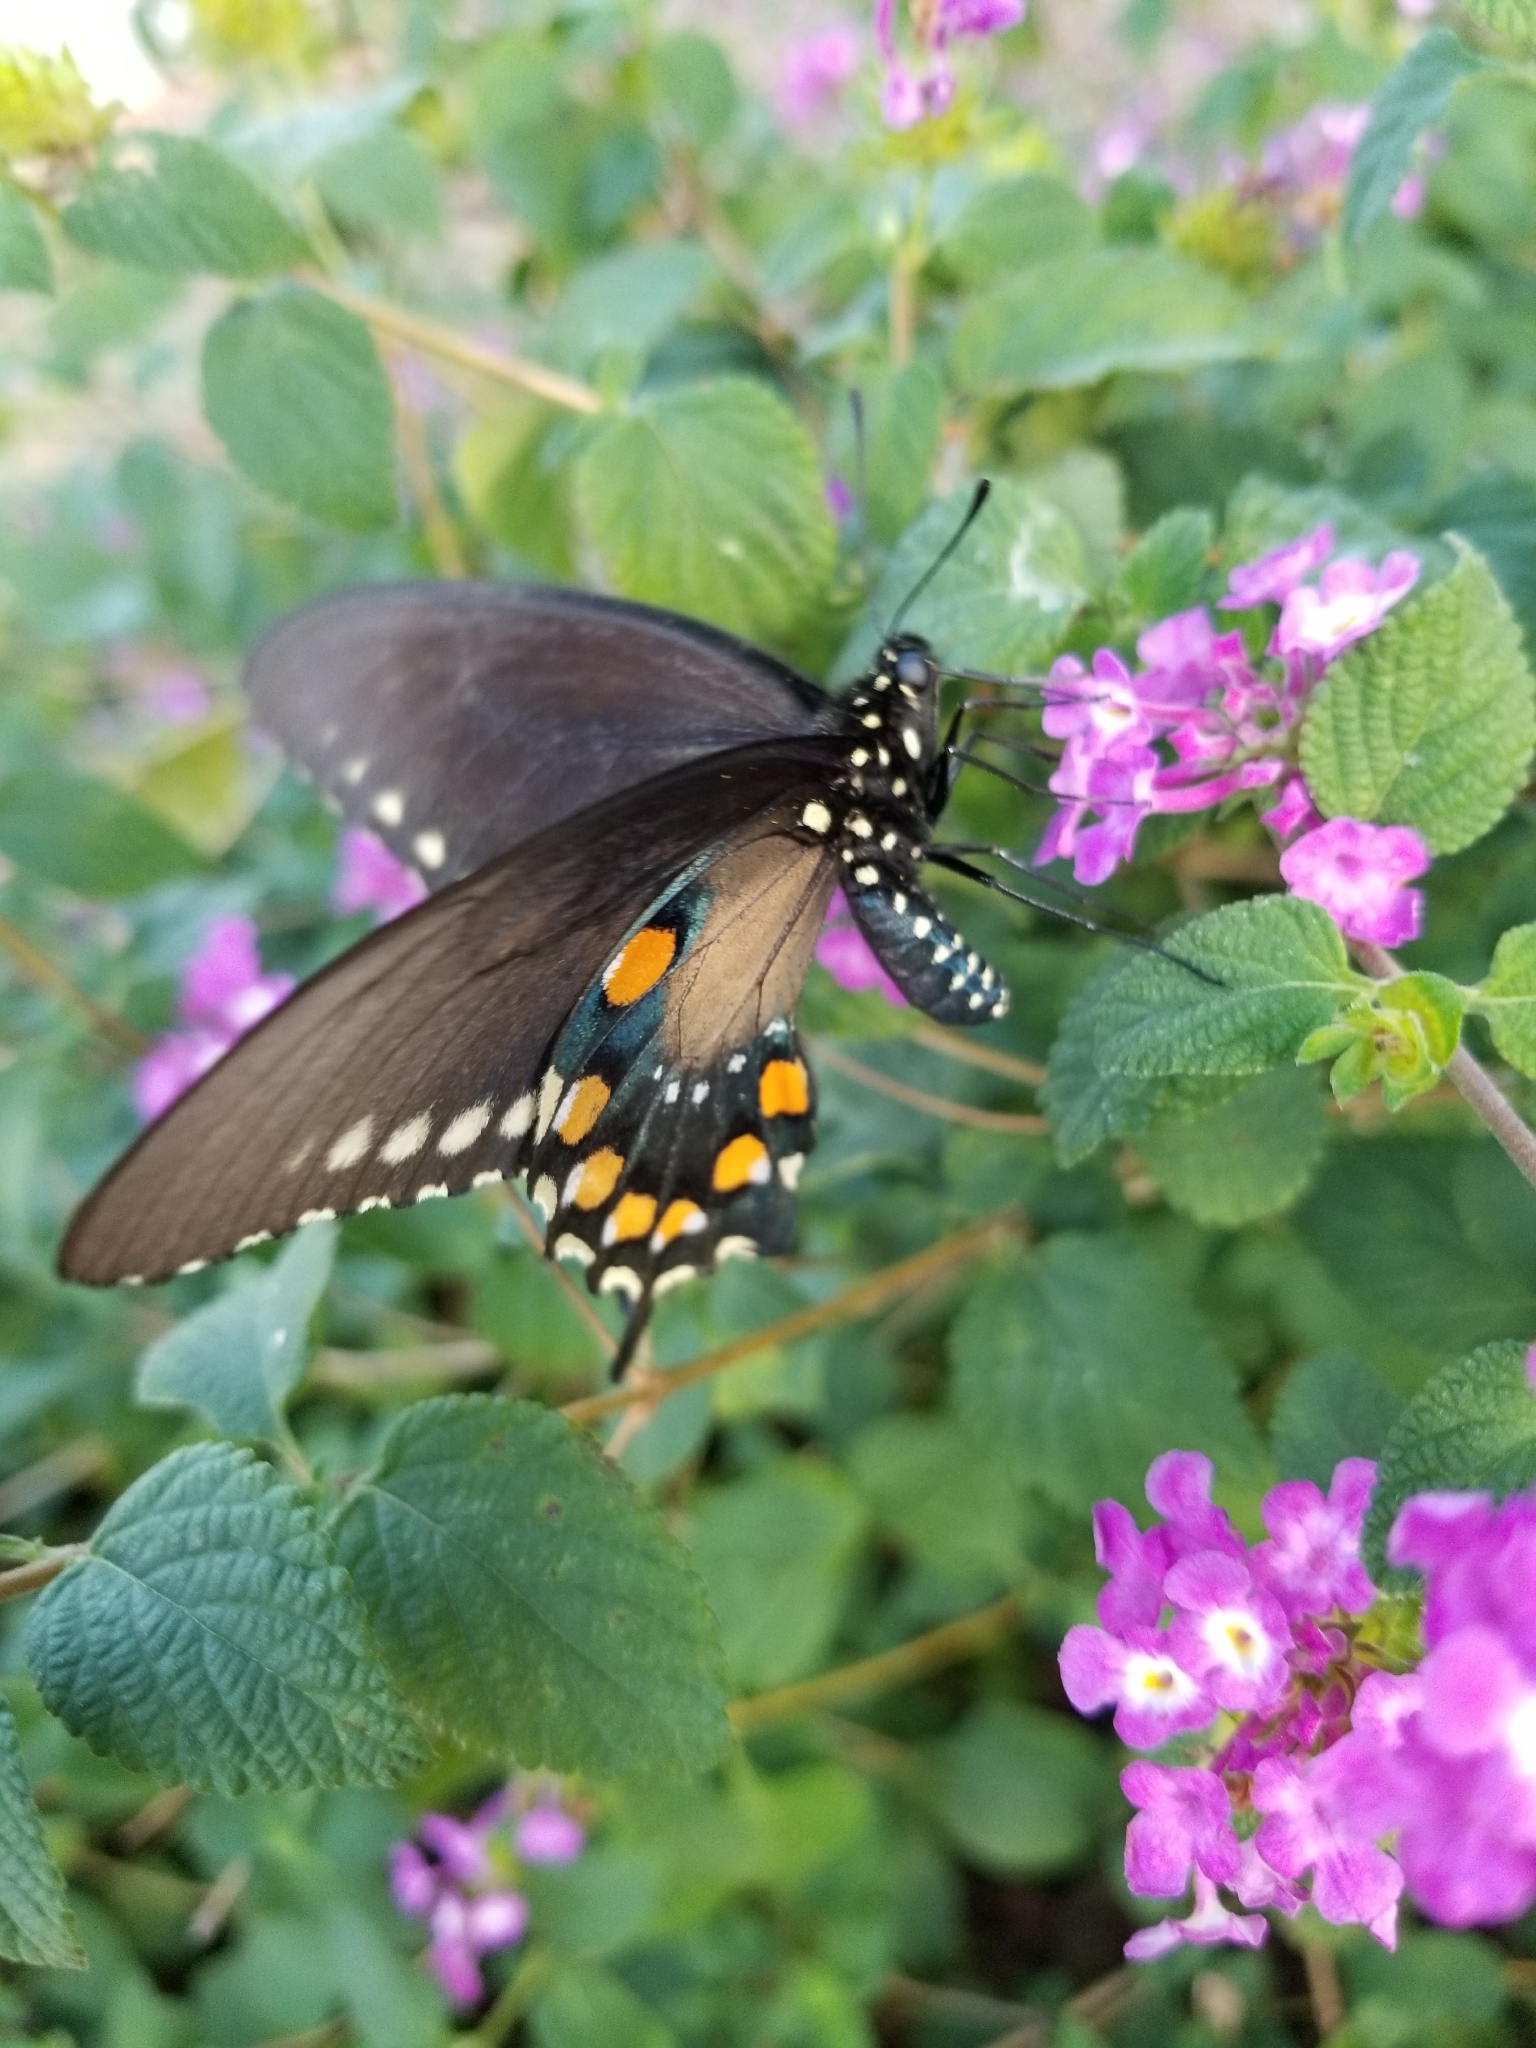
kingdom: Animalia
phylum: Arthropoda
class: Insecta
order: Lepidoptera
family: Papilionidae
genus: Battus
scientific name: Battus philenor
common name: Pipevine swallowtail
